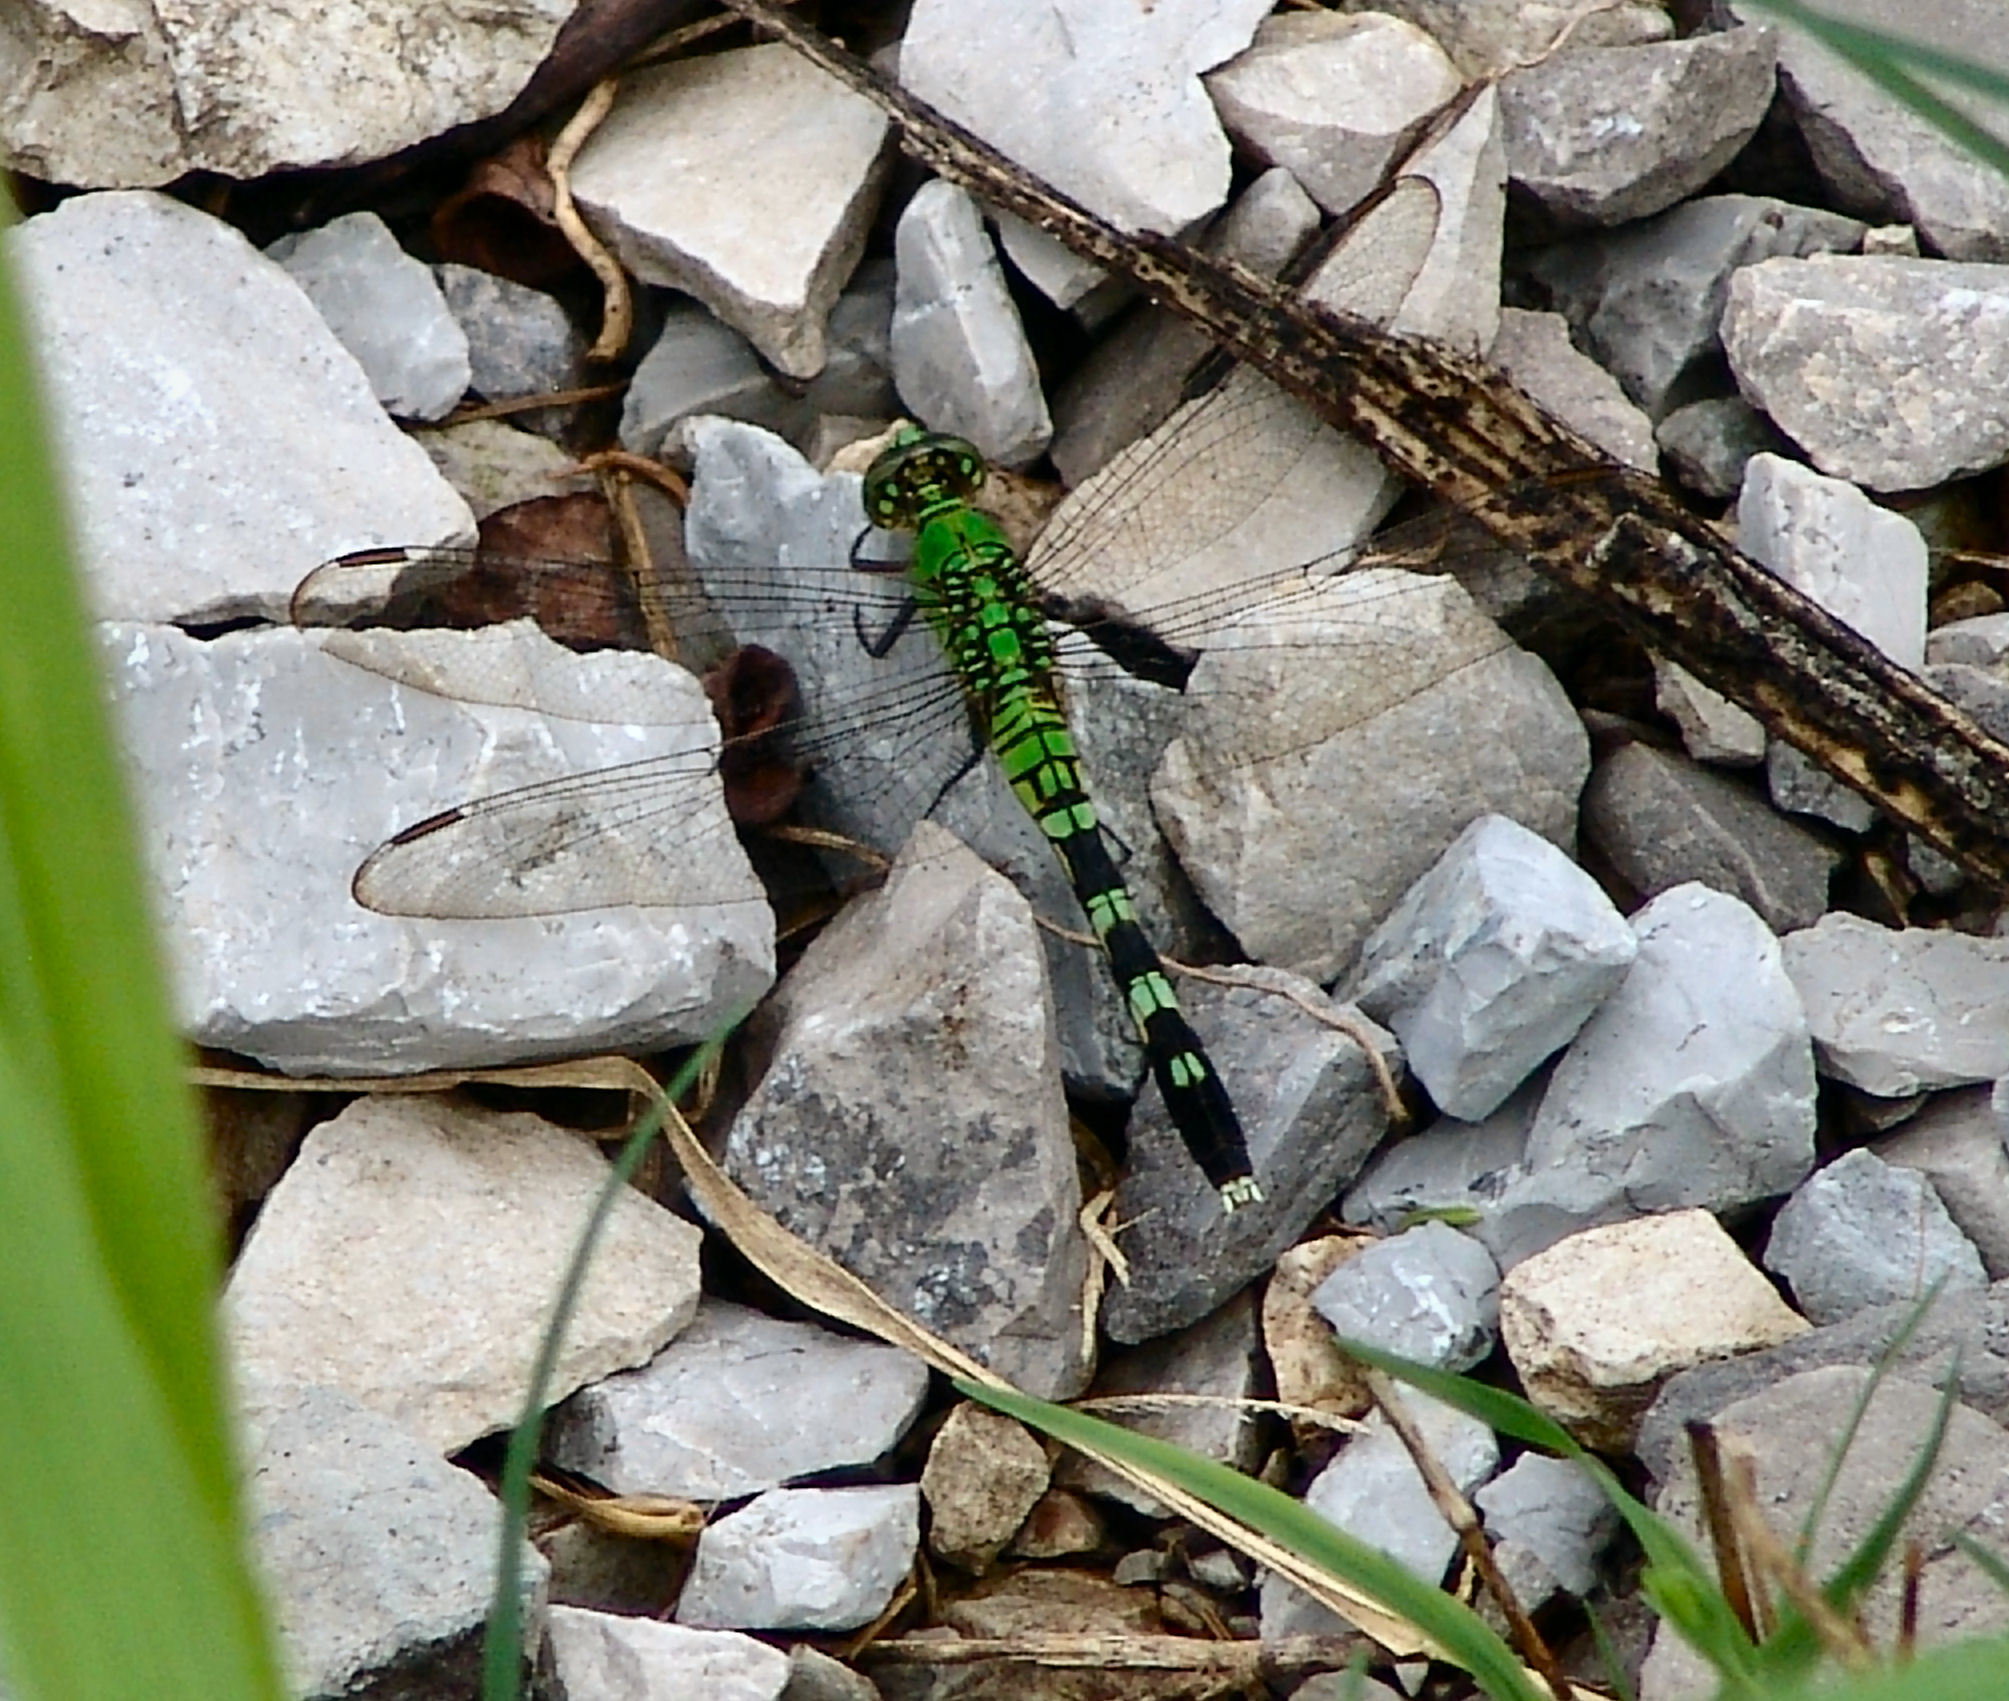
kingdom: Animalia
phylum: Arthropoda
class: Insecta
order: Odonata
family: Libellulidae
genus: Erythemis
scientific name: Erythemis simplicicollis
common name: Eastern pondhawk
